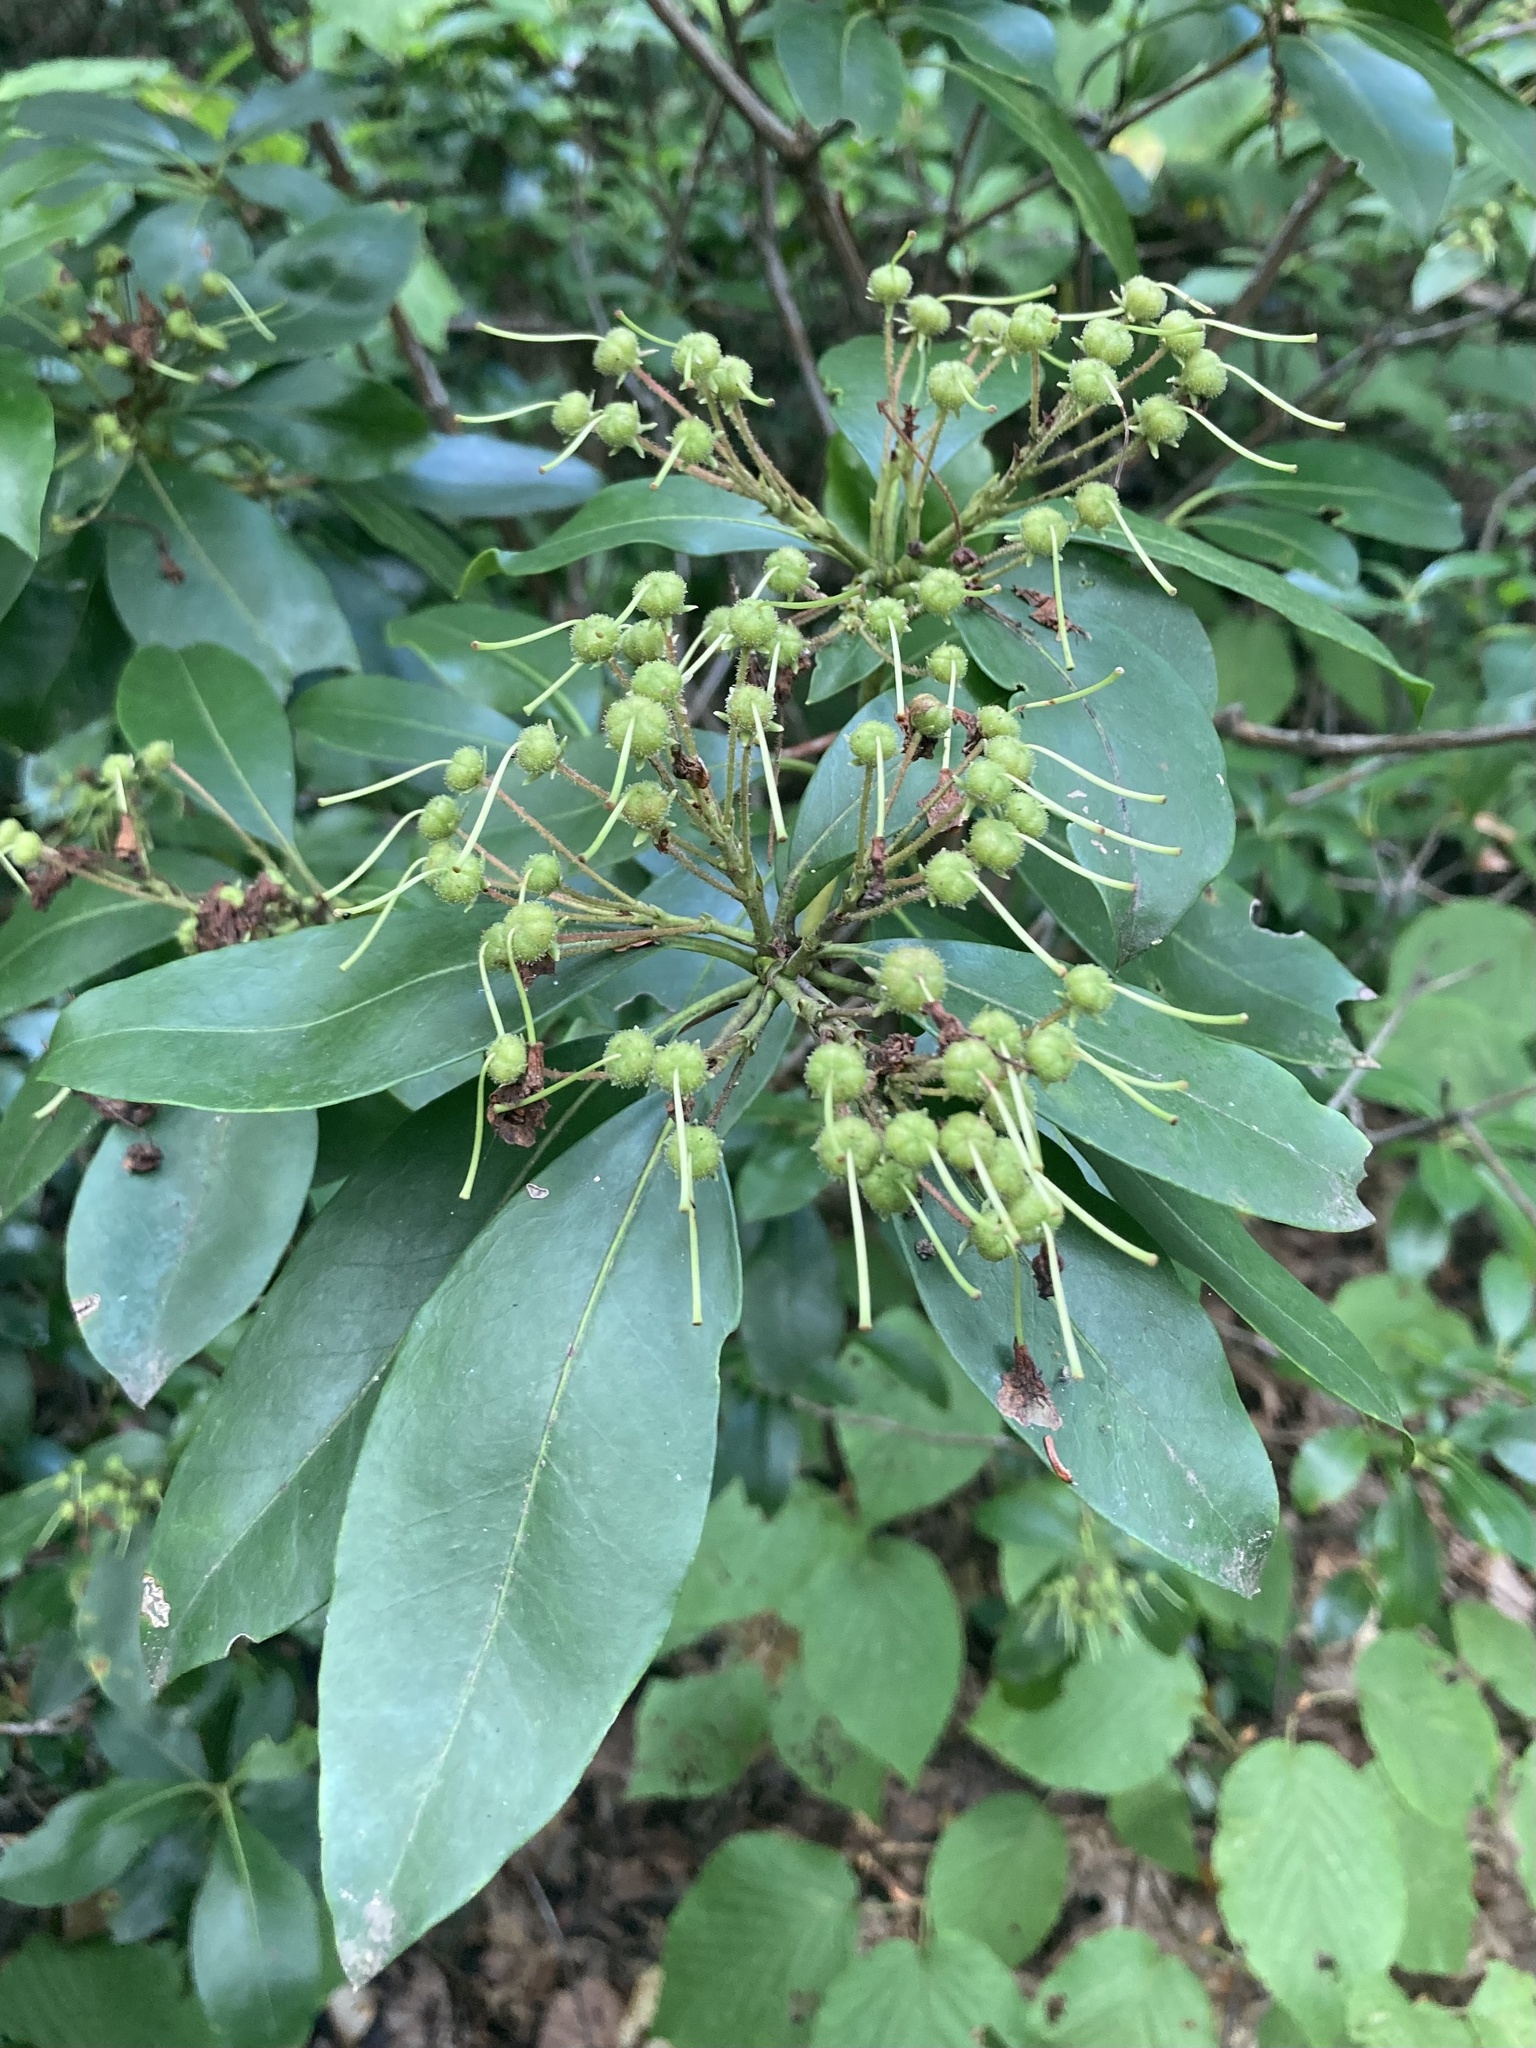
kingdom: Plantae
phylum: Tracheophyta
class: Magnoliopsida
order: Ericales
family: Ericaceae
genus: Kalmia
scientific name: Kalmia latifolia
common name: Mountain-laurel
